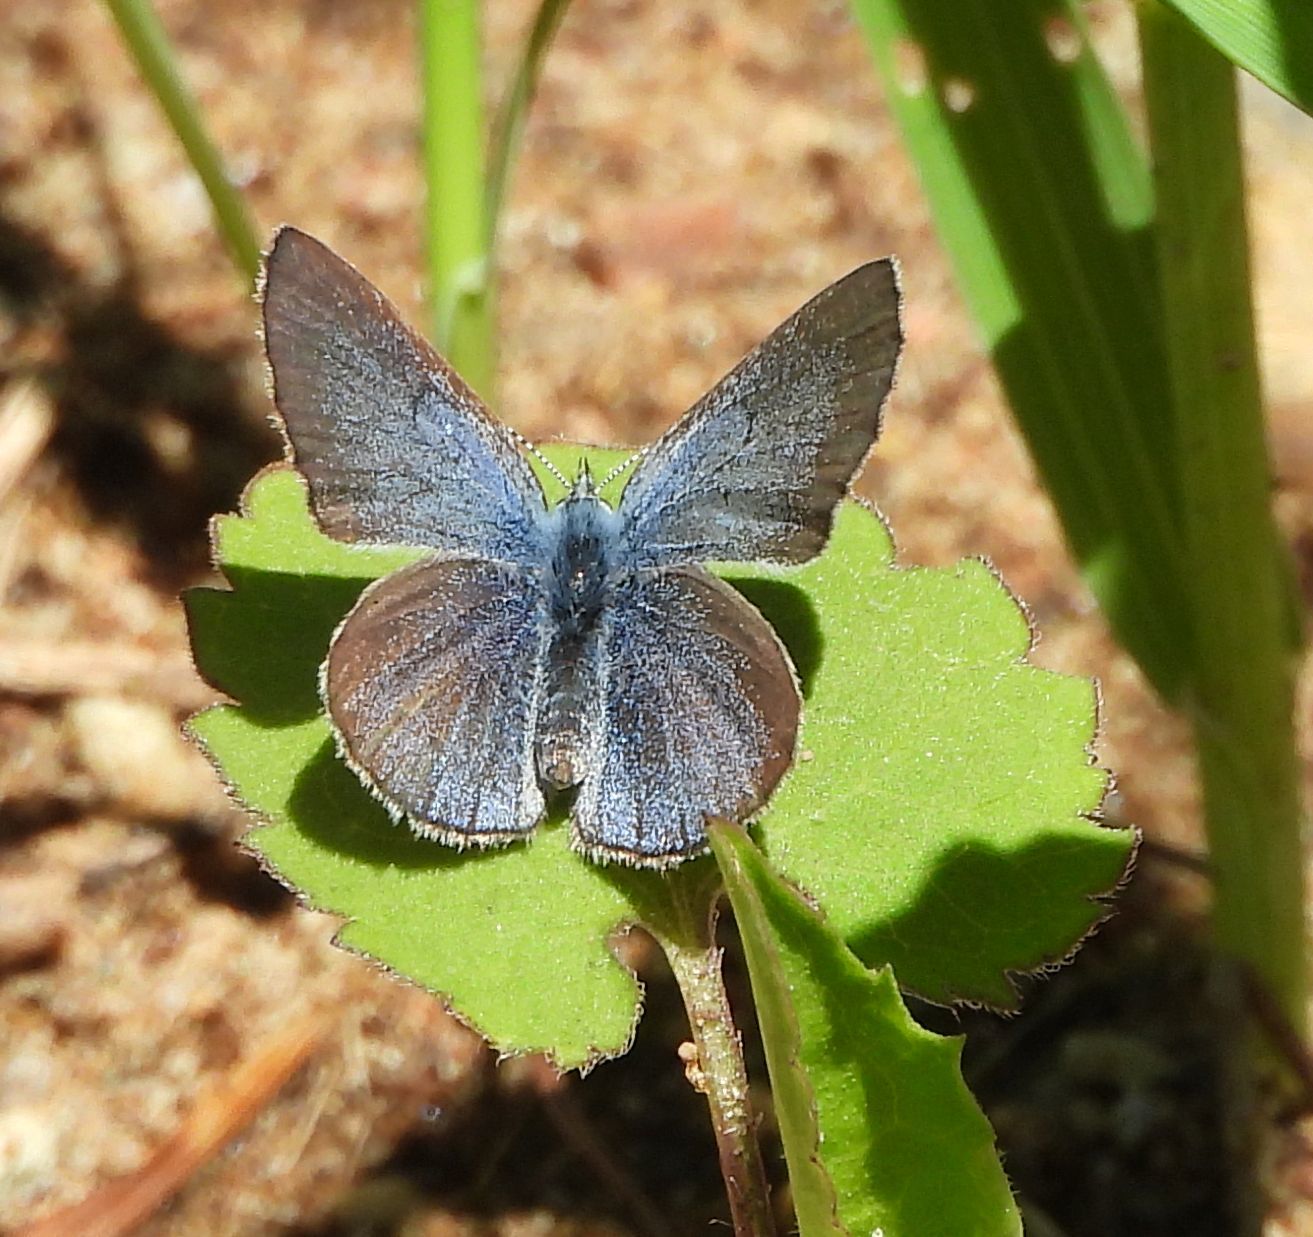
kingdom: Animalia
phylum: Arthropoda
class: Insecta
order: Lepidoptera
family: Lycaenidae
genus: Glaucopsyche
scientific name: Glaucopsyche lygdamus
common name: Silvery blue
